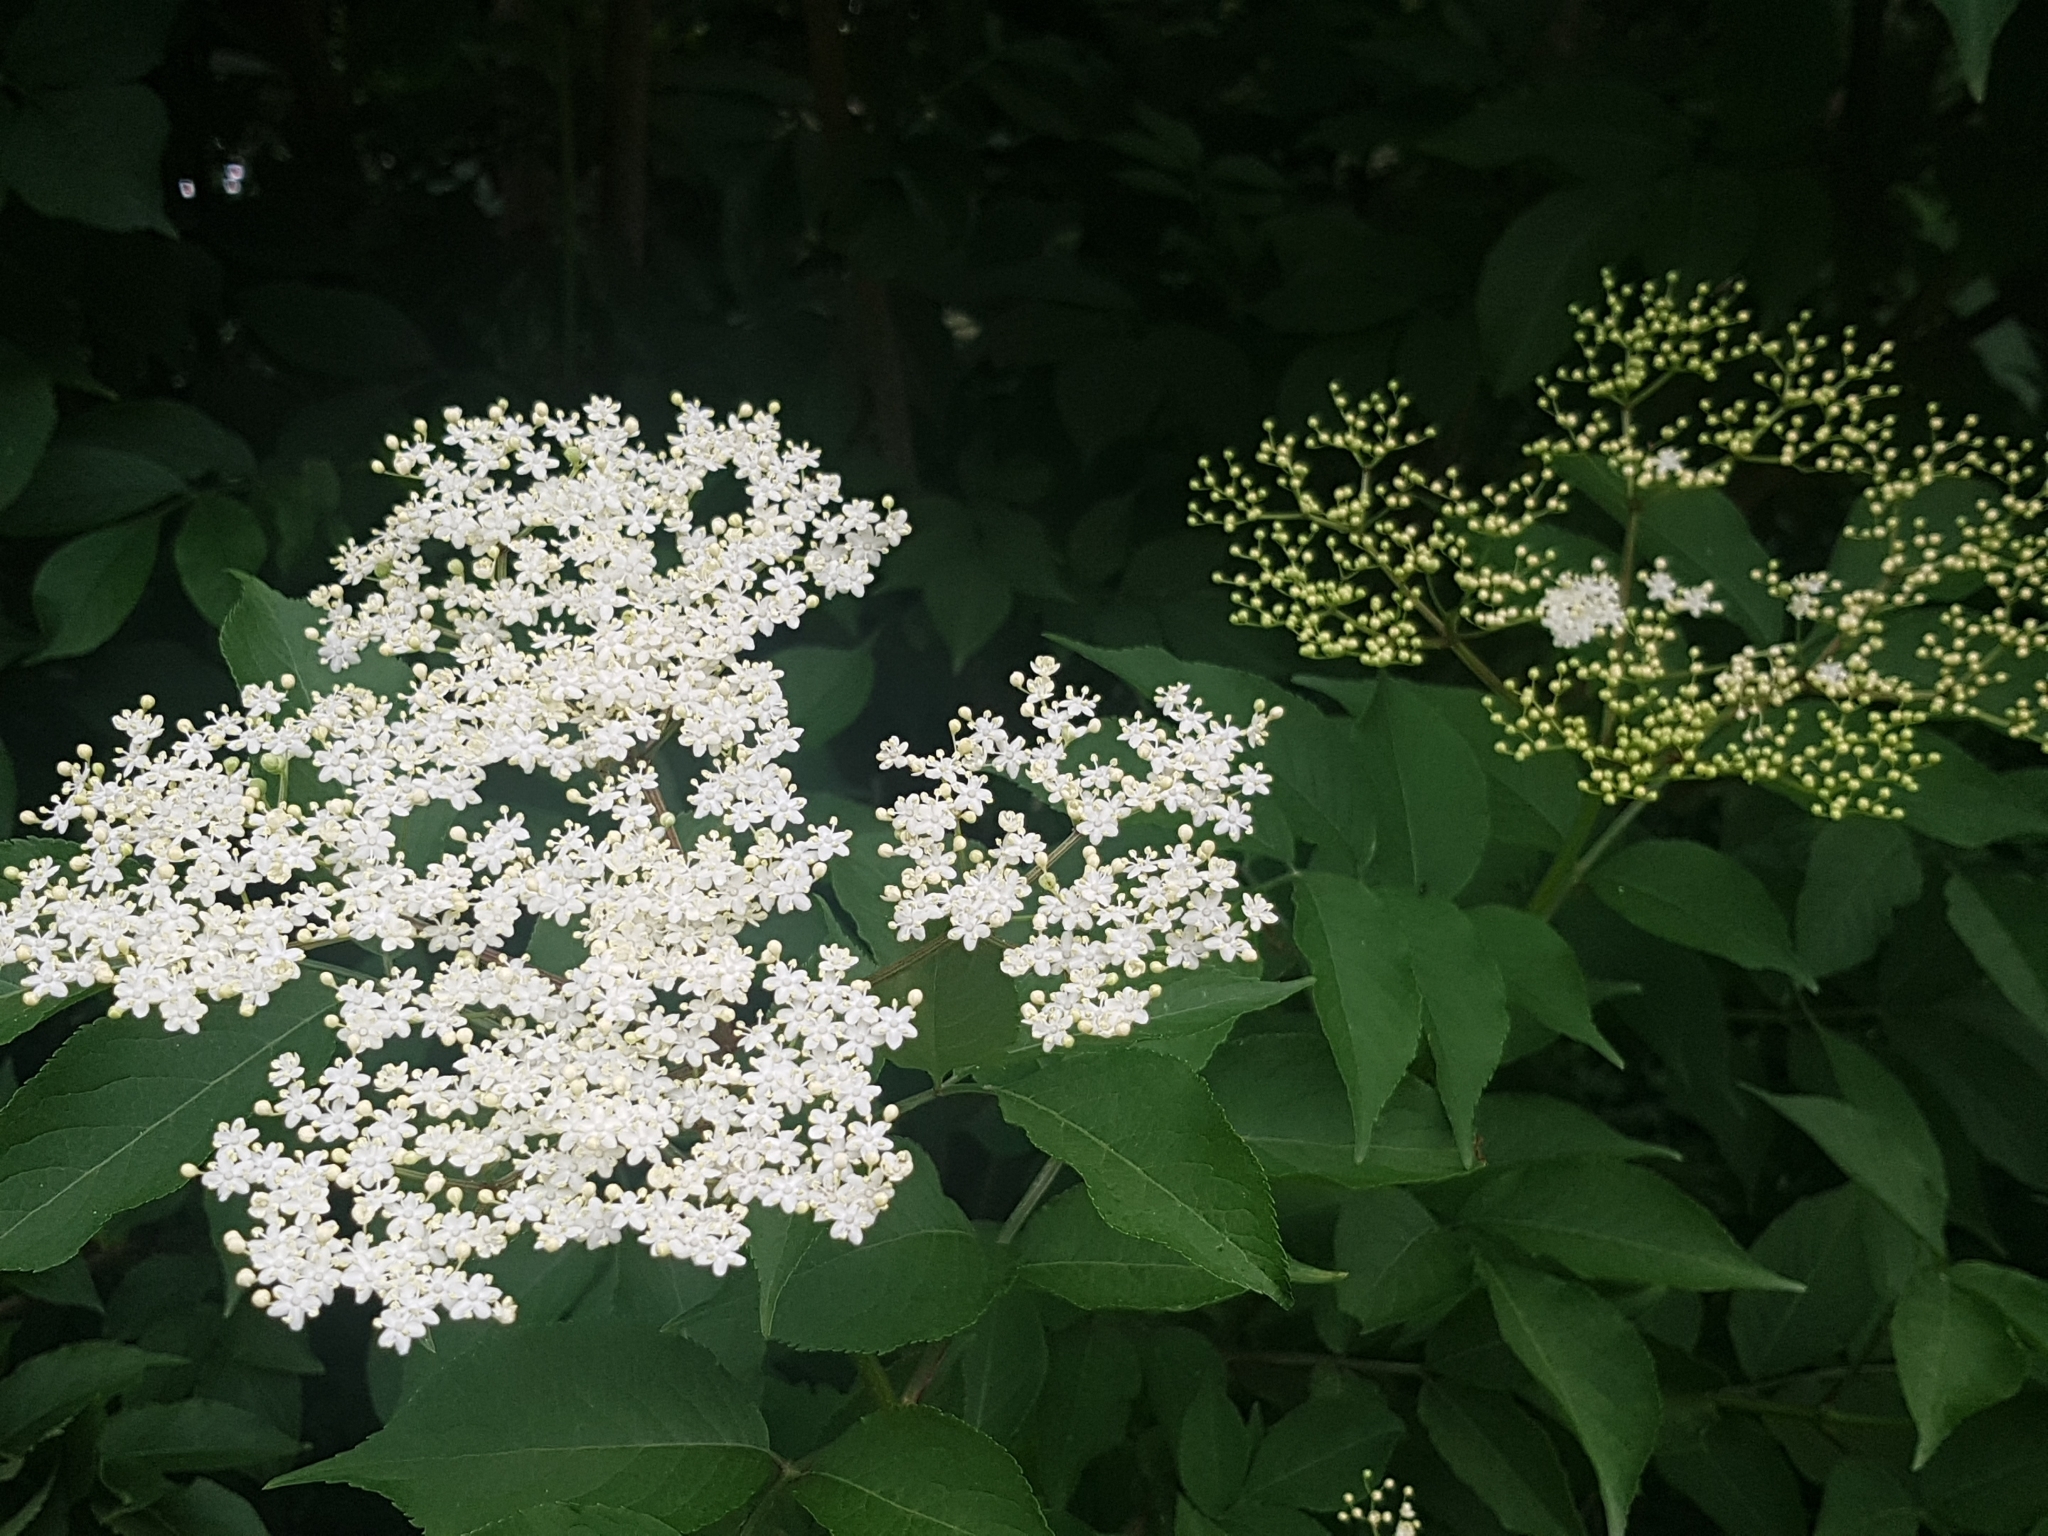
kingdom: Plantae
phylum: Tracheophyta
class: Magnoliopsida
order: Dipsacales
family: Viburnaceae
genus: Sambucus
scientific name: Sambucus nigra
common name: Elder
